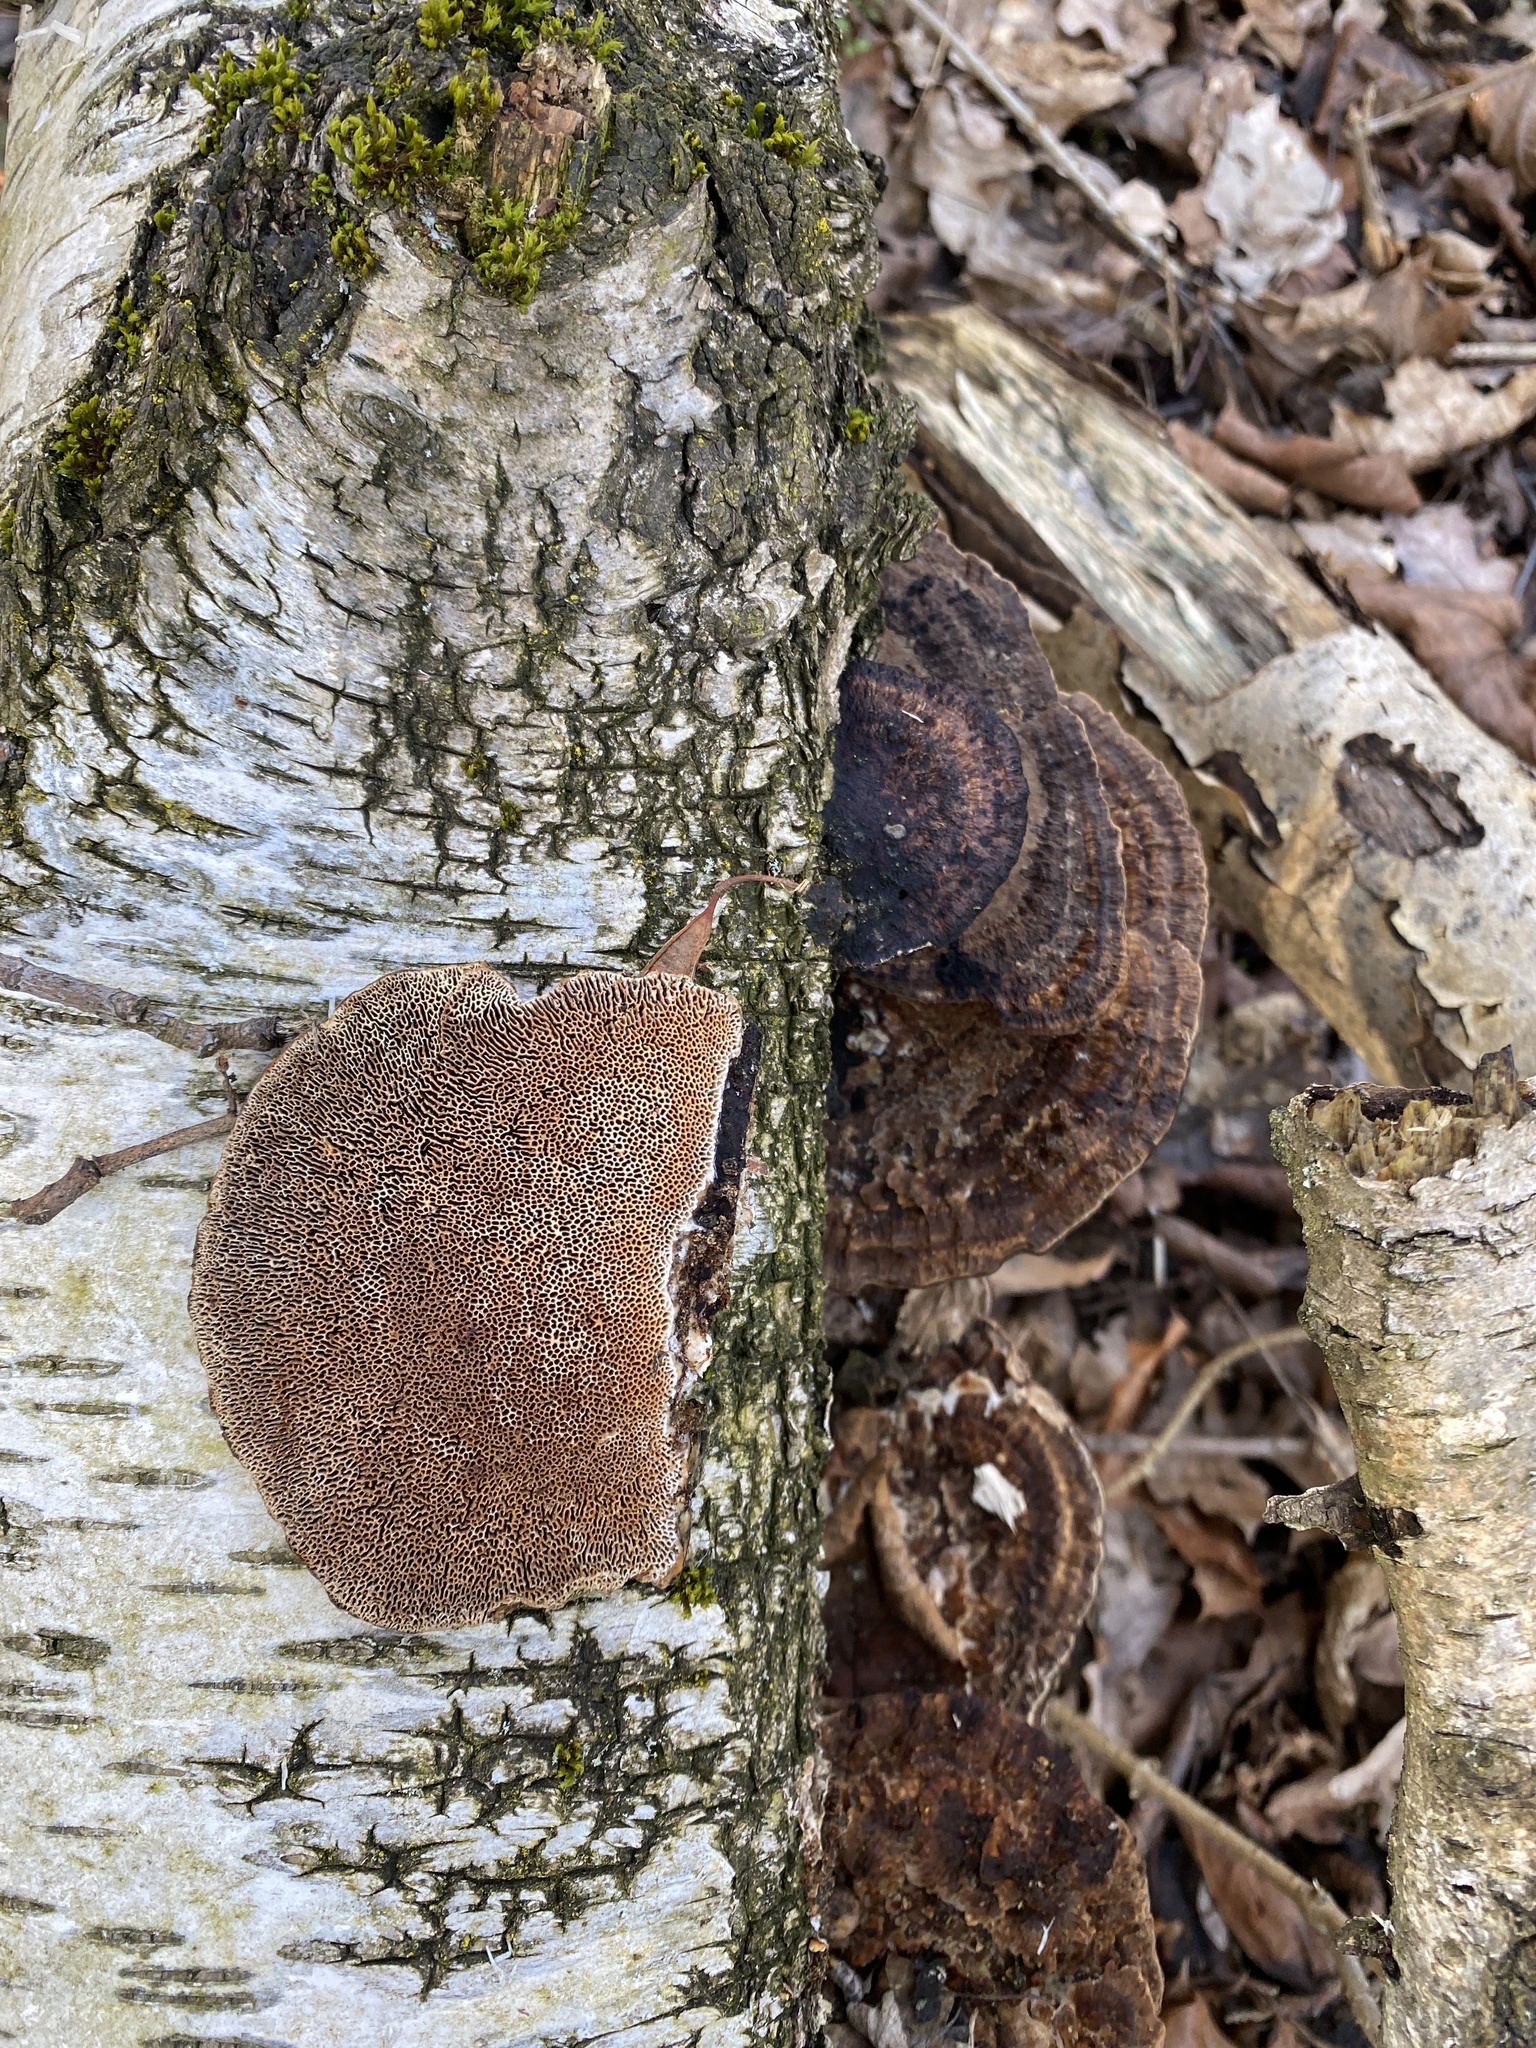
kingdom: Fungi
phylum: Basidiomycota
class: Agaricomycetes
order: Polyporales
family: Polyporaceae
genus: Daedaleopsis
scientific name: Daedaleopsis confragosa
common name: Blushing bracket
